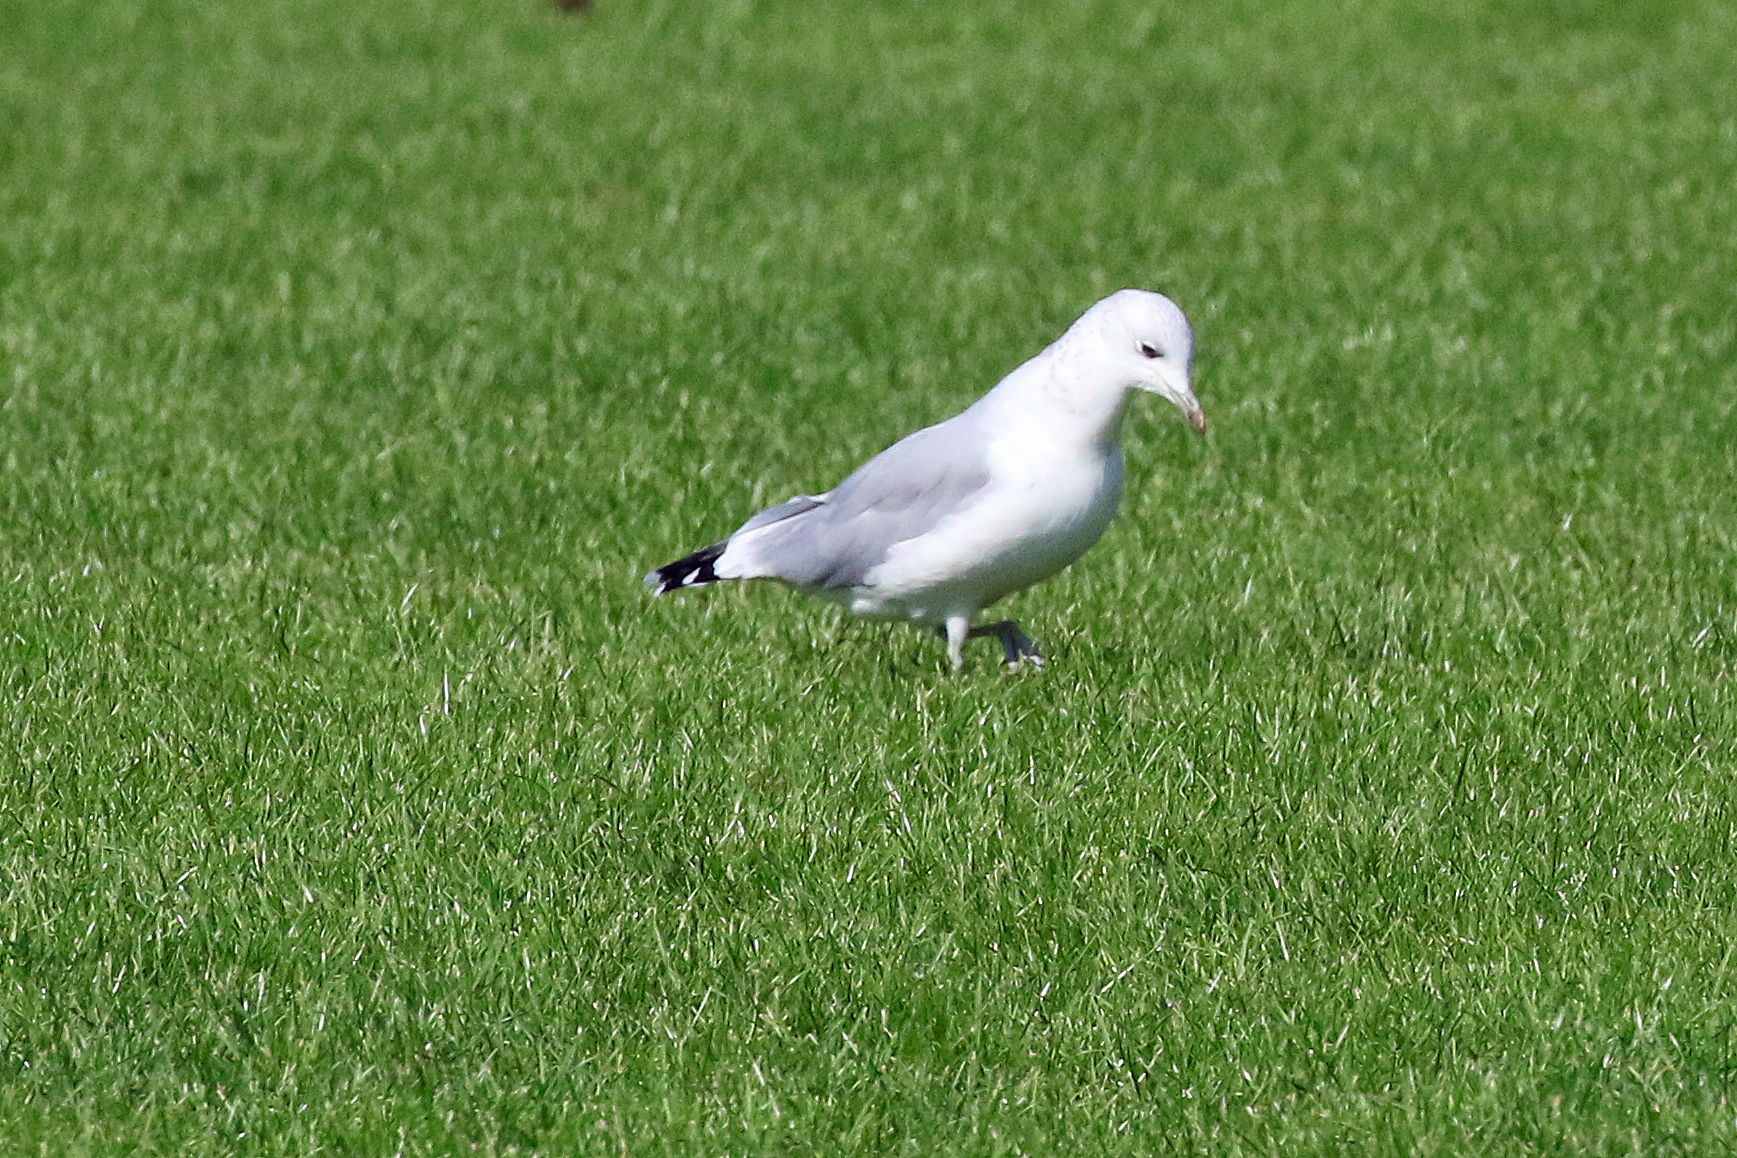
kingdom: Animalia
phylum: Chordata
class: Aves
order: Charadriiformes
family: Laridae
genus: Larus
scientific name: Larus canus
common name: Mew gull
